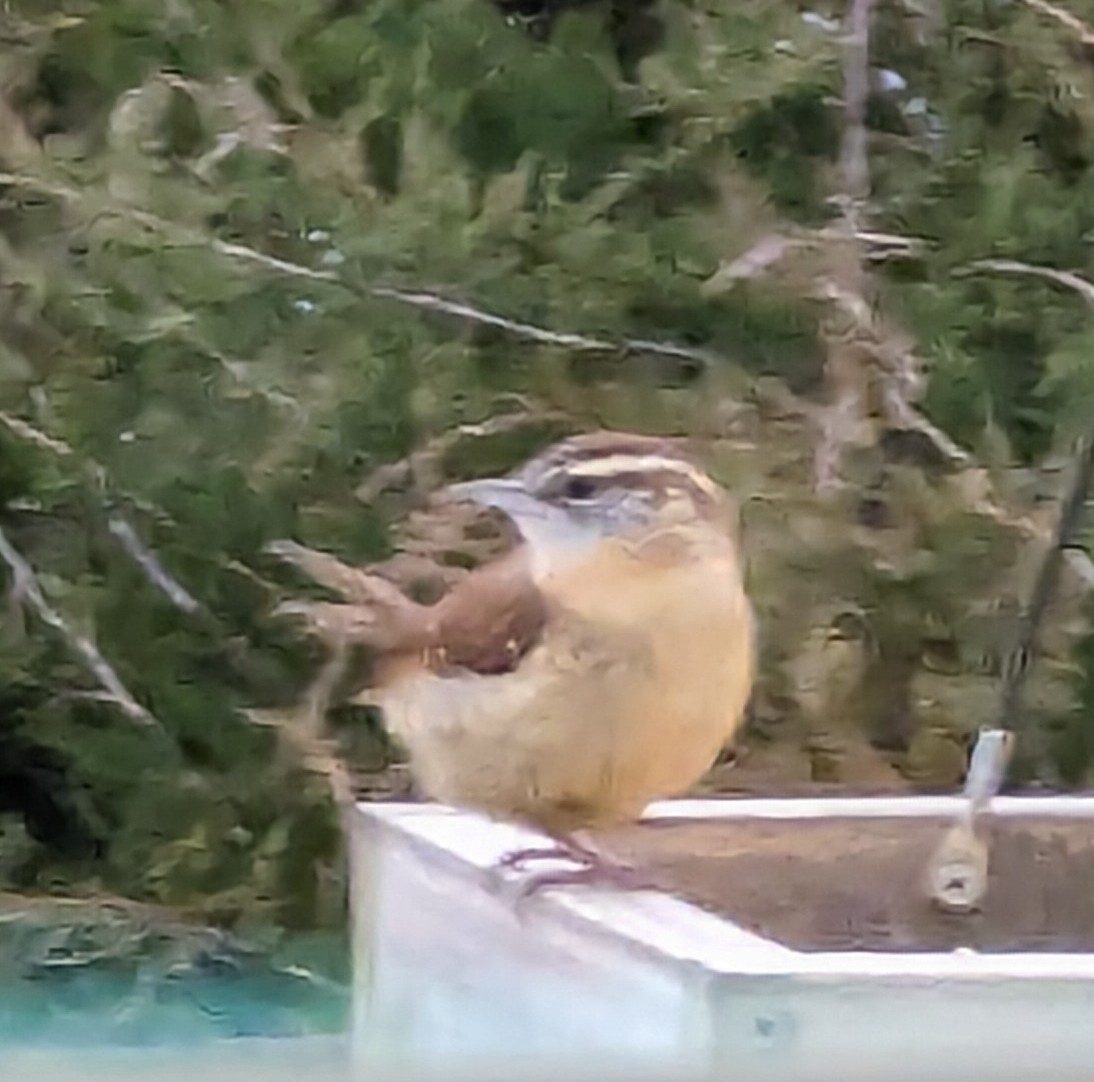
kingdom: Animalia
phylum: Chordata
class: Aves
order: Passeriformes
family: Troglodytidae
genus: Thryothorus
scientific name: Thryothorus ludovicianus
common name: Carolina wren
